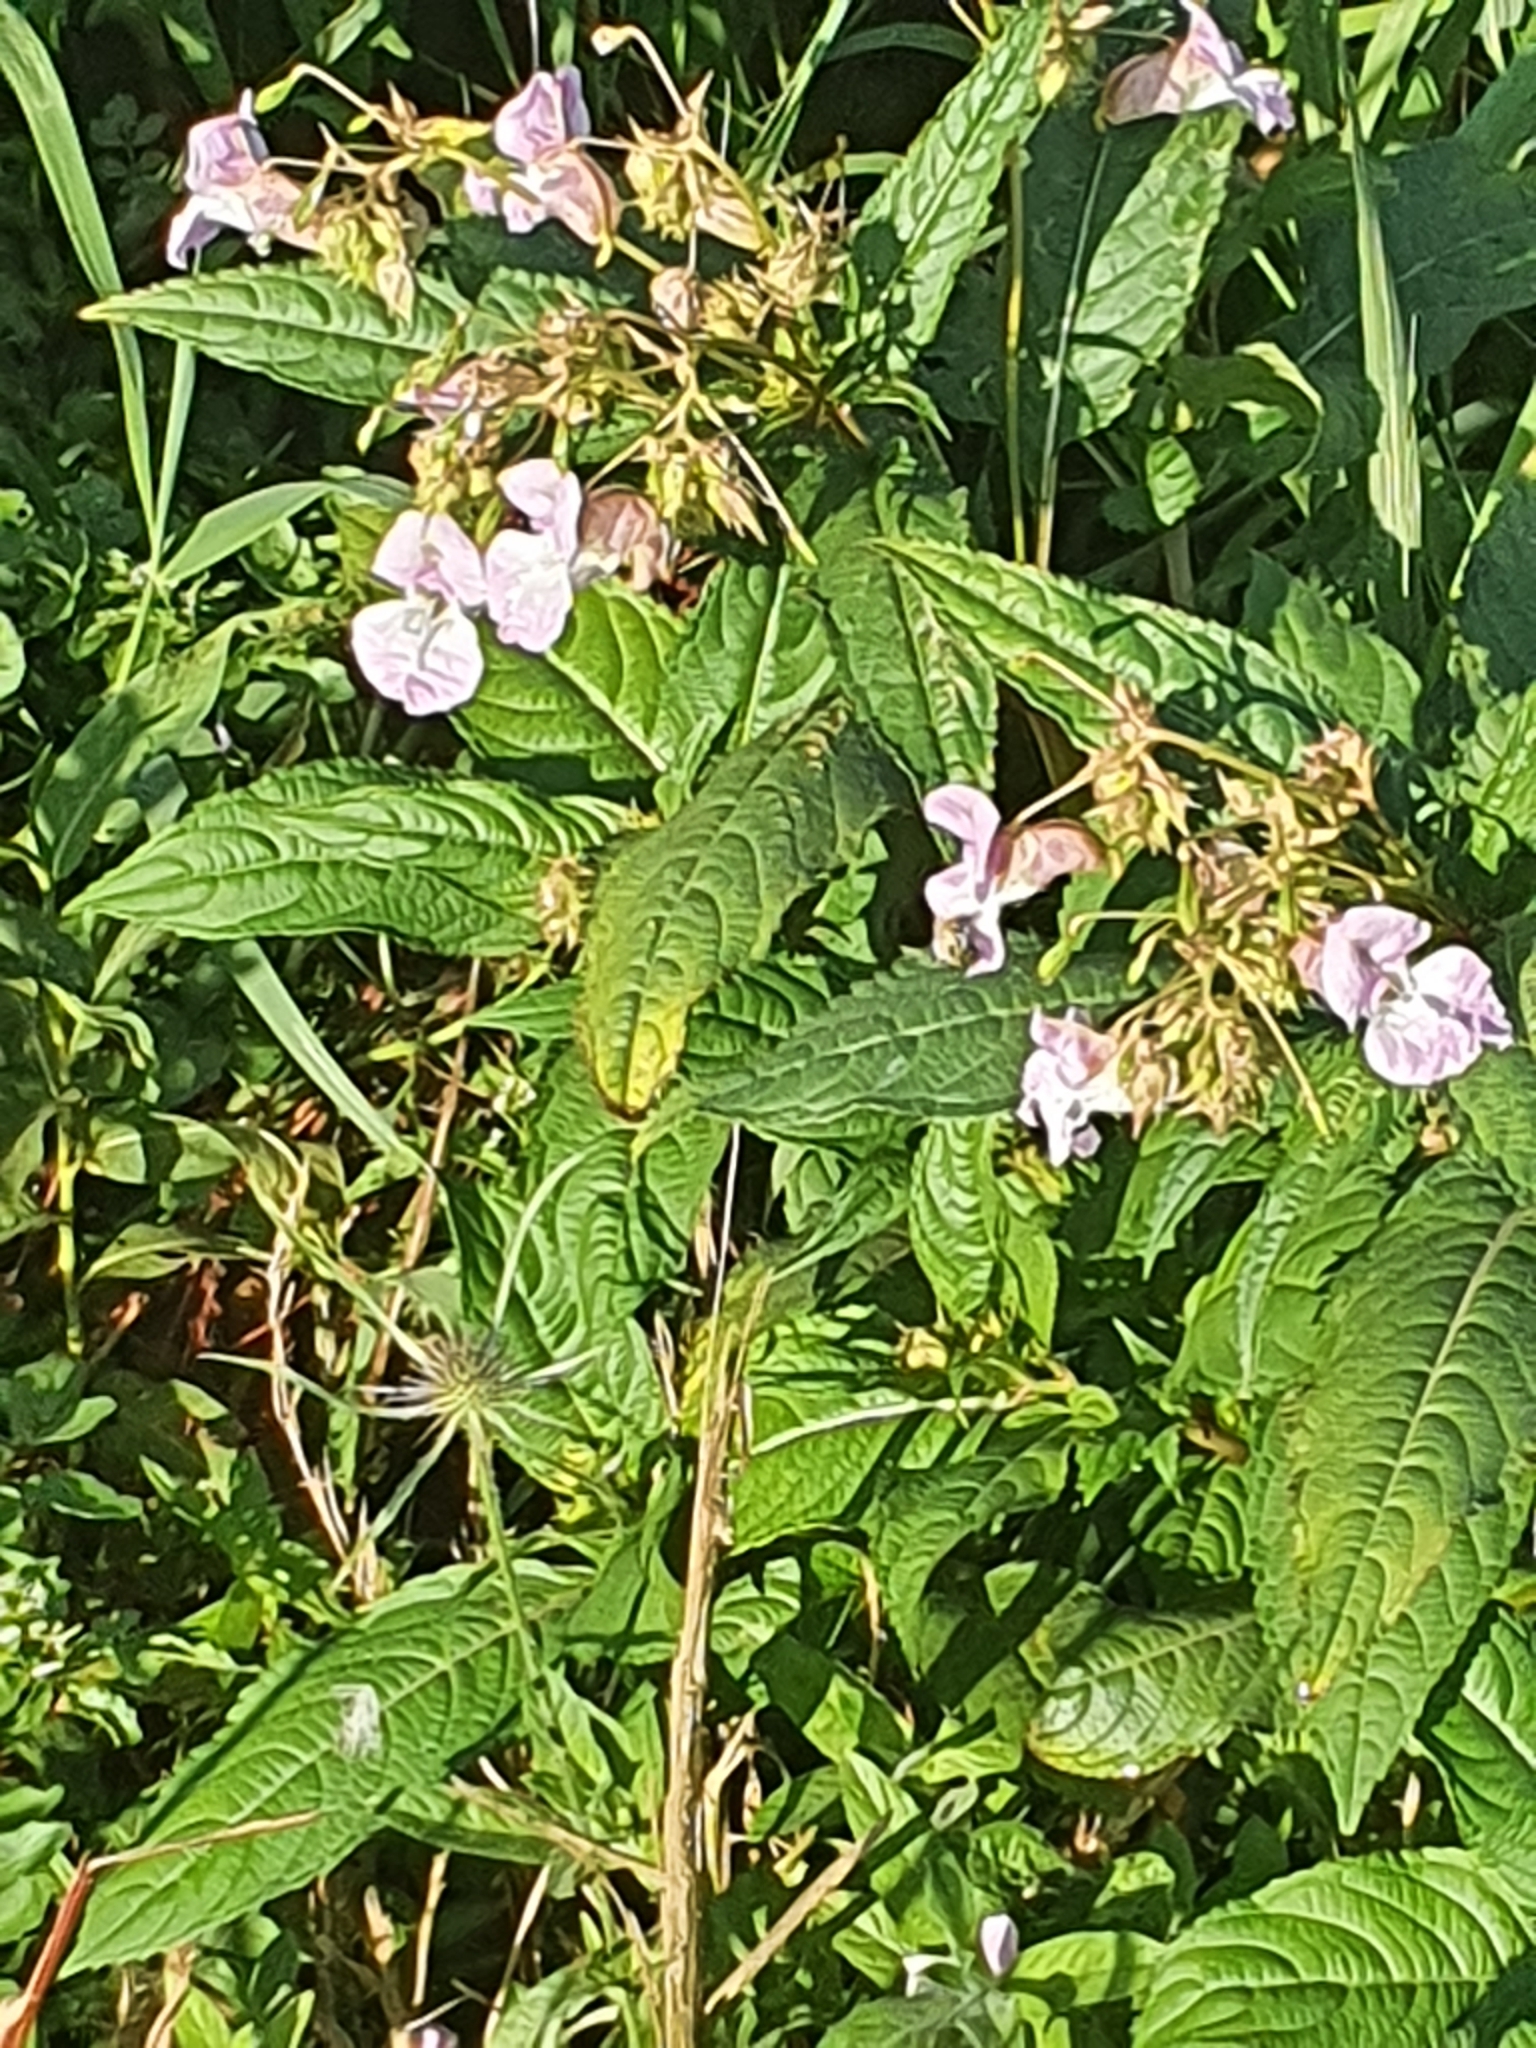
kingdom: Plantae
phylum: Tracheophyta
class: Magnoliopsida
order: Ericales
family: Balsaminaceae
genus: Impatiens
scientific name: Impatiens glandulifera
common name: Himalayan balsam
